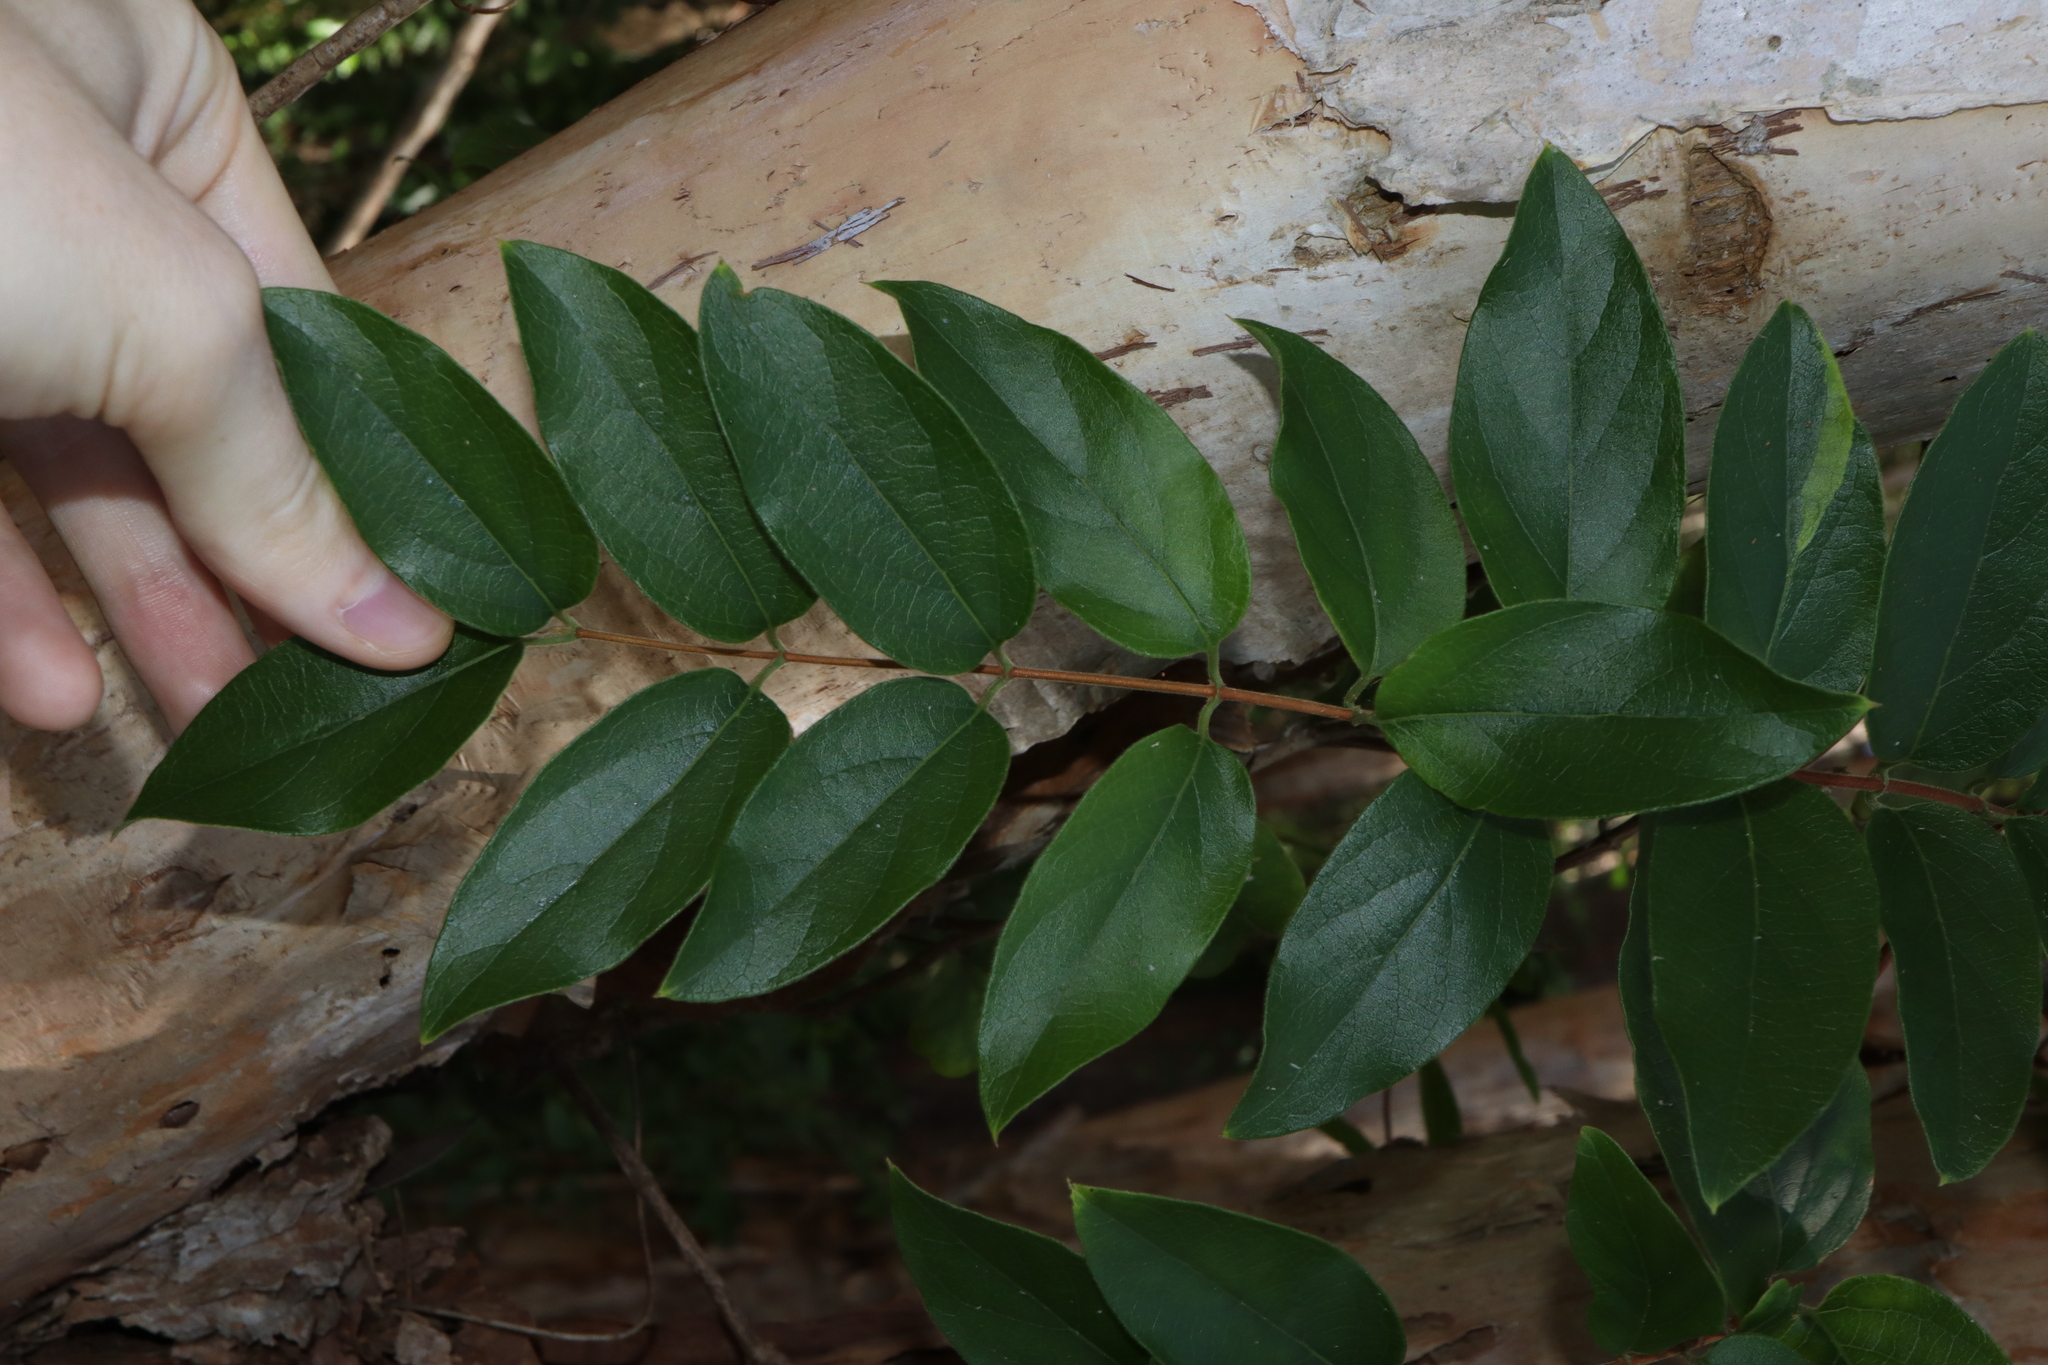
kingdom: Plantae
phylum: Tracheophyta
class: Magnoliopsida
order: Dipsacales
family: Caprifoliaceae
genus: Lonicera
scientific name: Lonicera japonica
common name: Japanese honeysuckle
